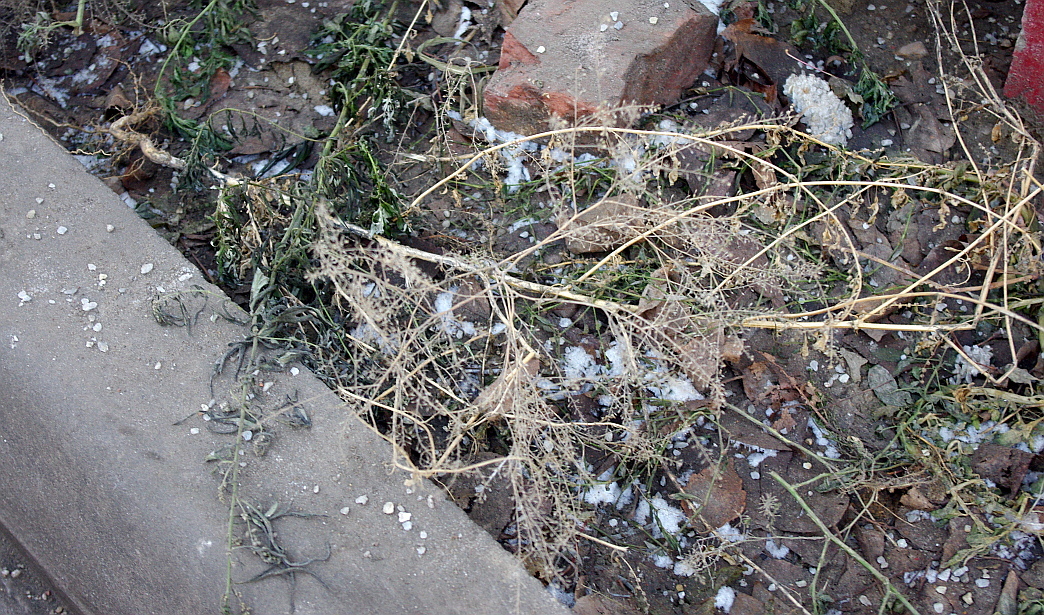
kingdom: Plantae
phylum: Tracheophyta
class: Magnoliopsida
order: Brassicales
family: Brassicaceae
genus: Lepidium
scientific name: Lepidium ruderale
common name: Narrow-leaved pepperwort
